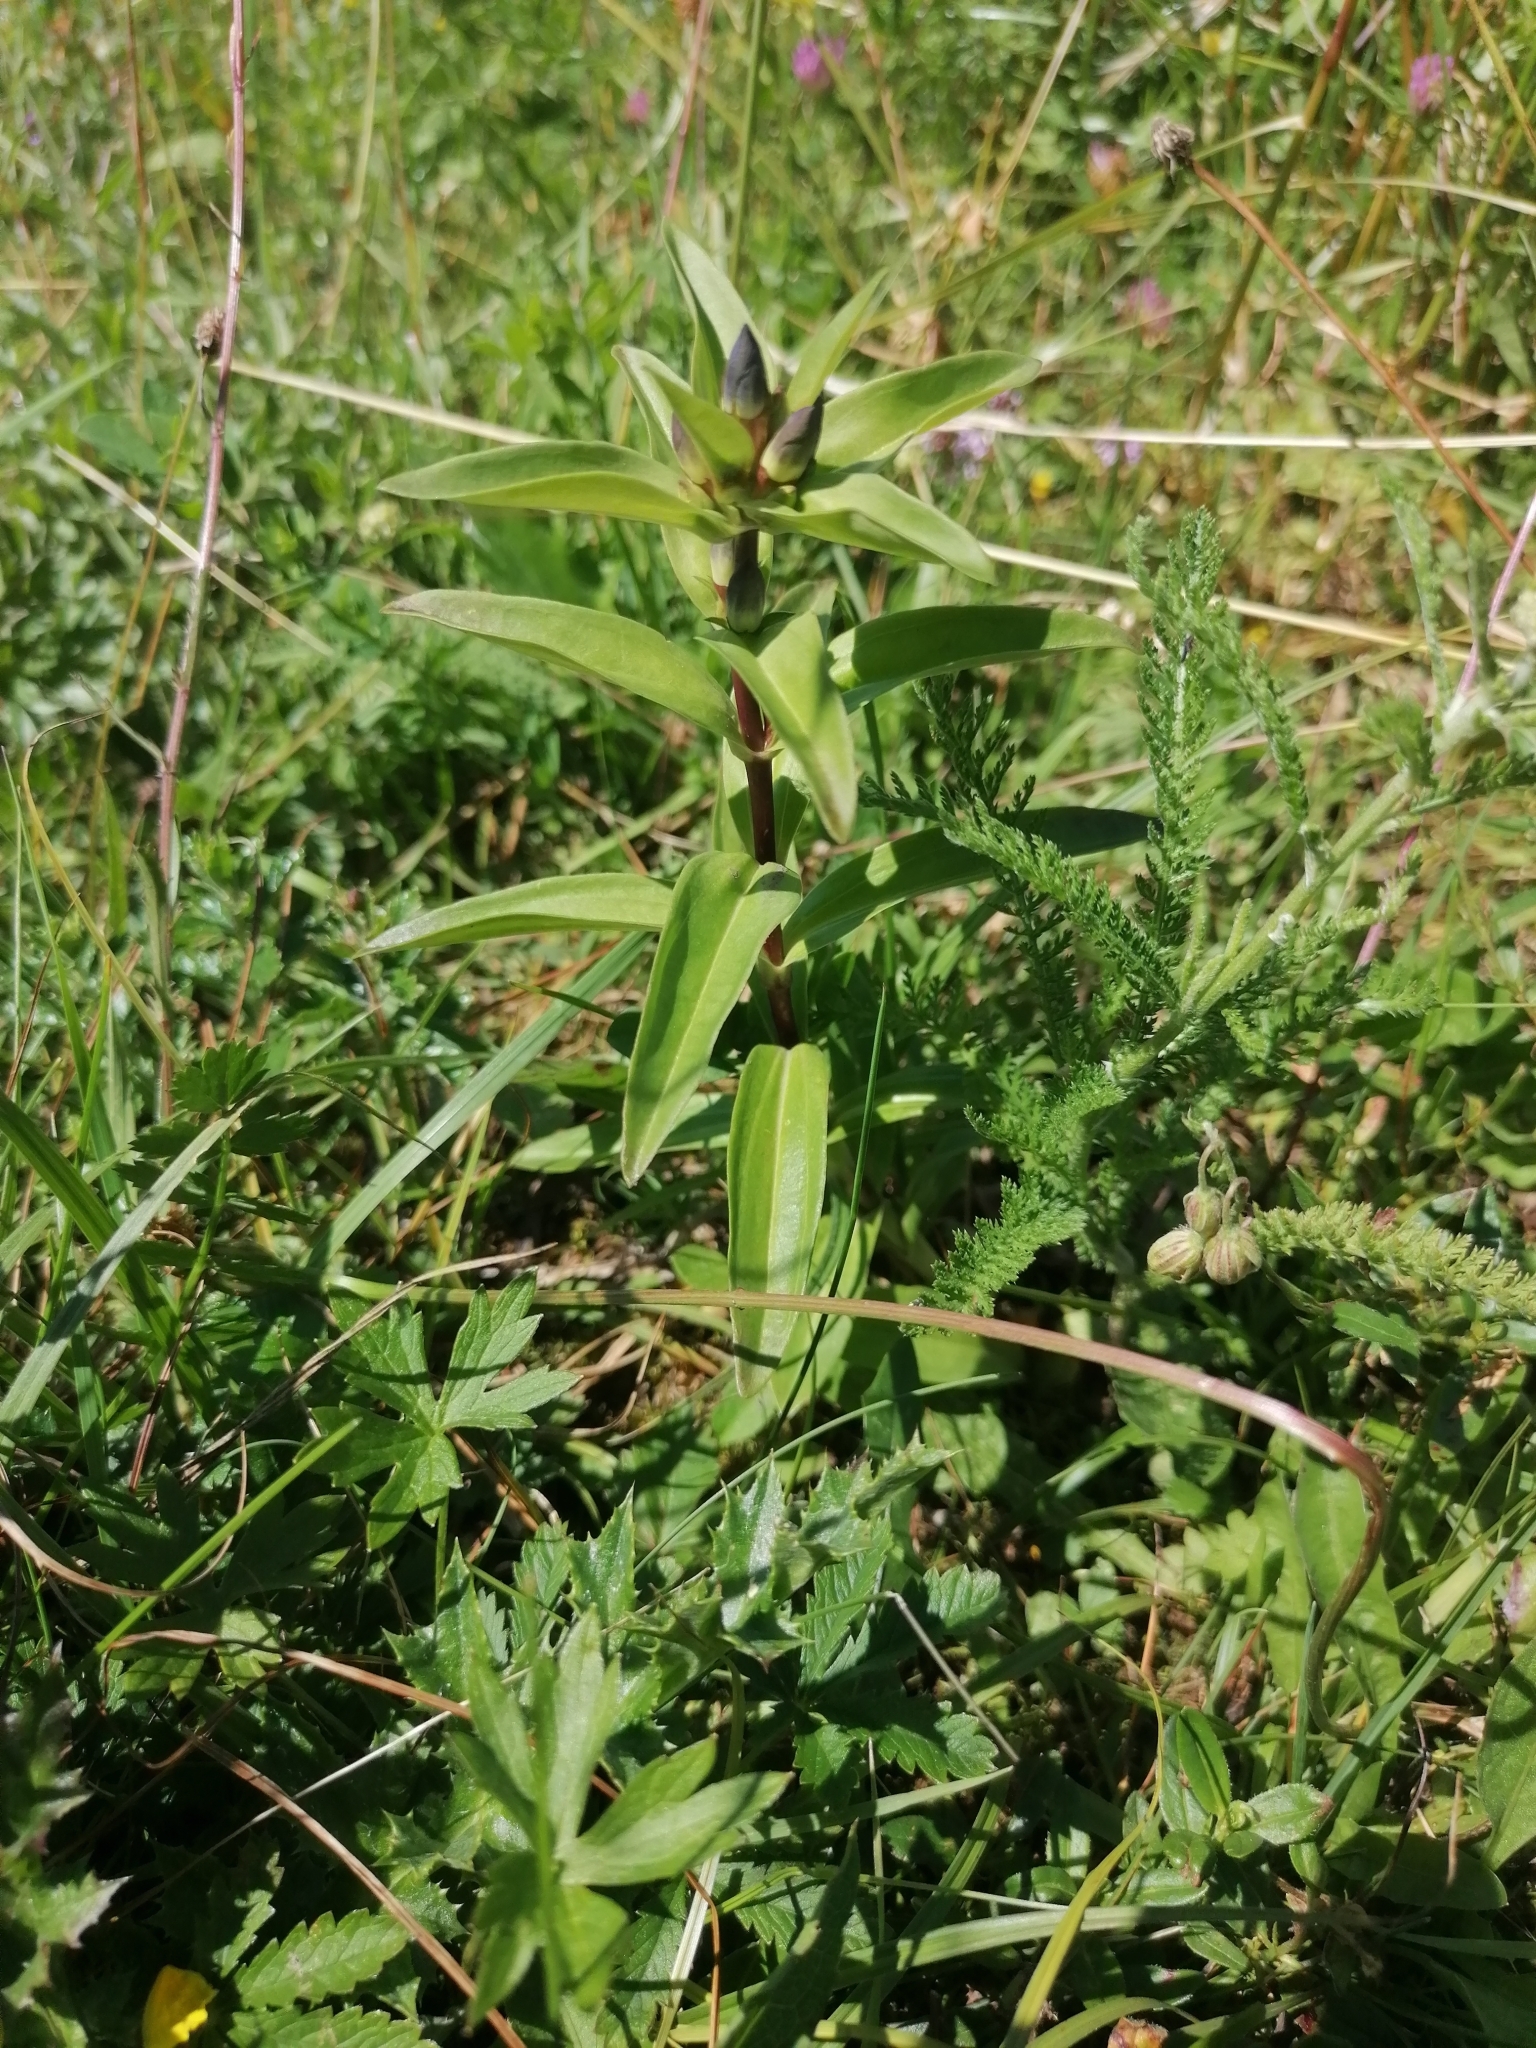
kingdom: Plantae
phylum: Tracheophyta
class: Magnoliopsida
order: Gentianales
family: Gentianaceae
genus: Gentiana
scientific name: Gentiana cruciata
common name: Cross gentian
